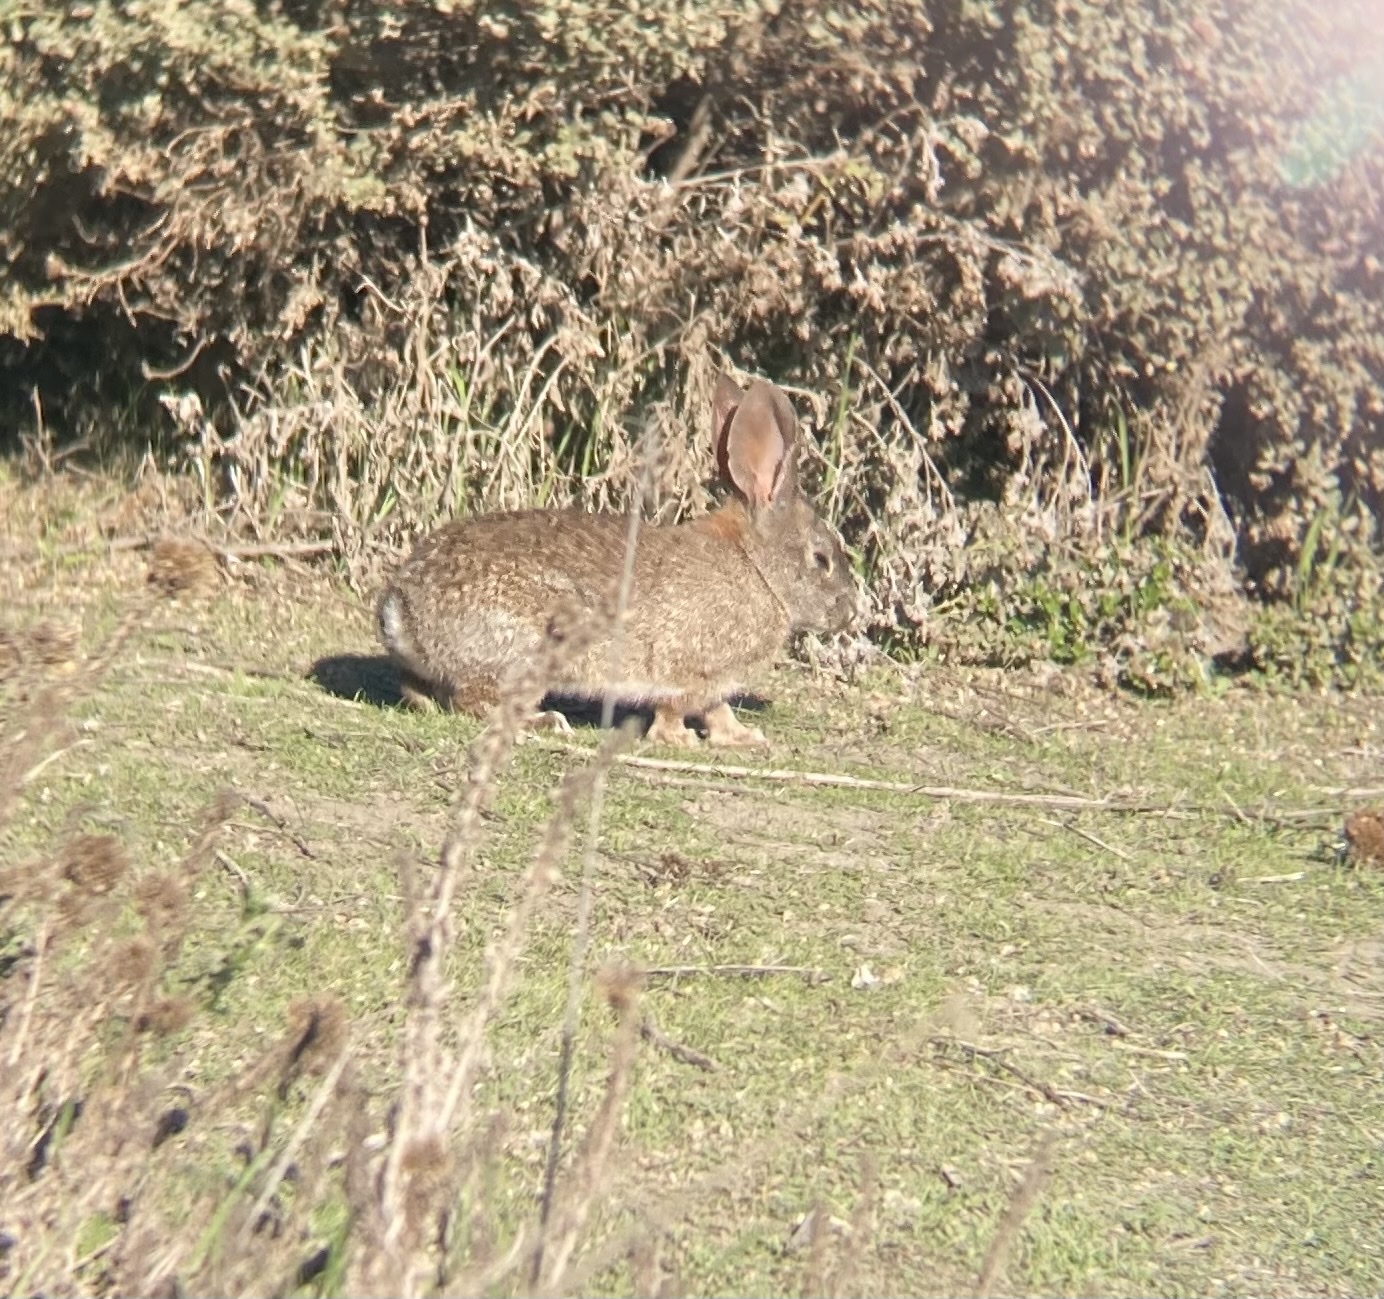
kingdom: Animalia
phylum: Chordata
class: Mammalia
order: Lagomorpha
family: Leporidae
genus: Sylvilagus
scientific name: Sylvilagus bachmani
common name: Brush rabbit
